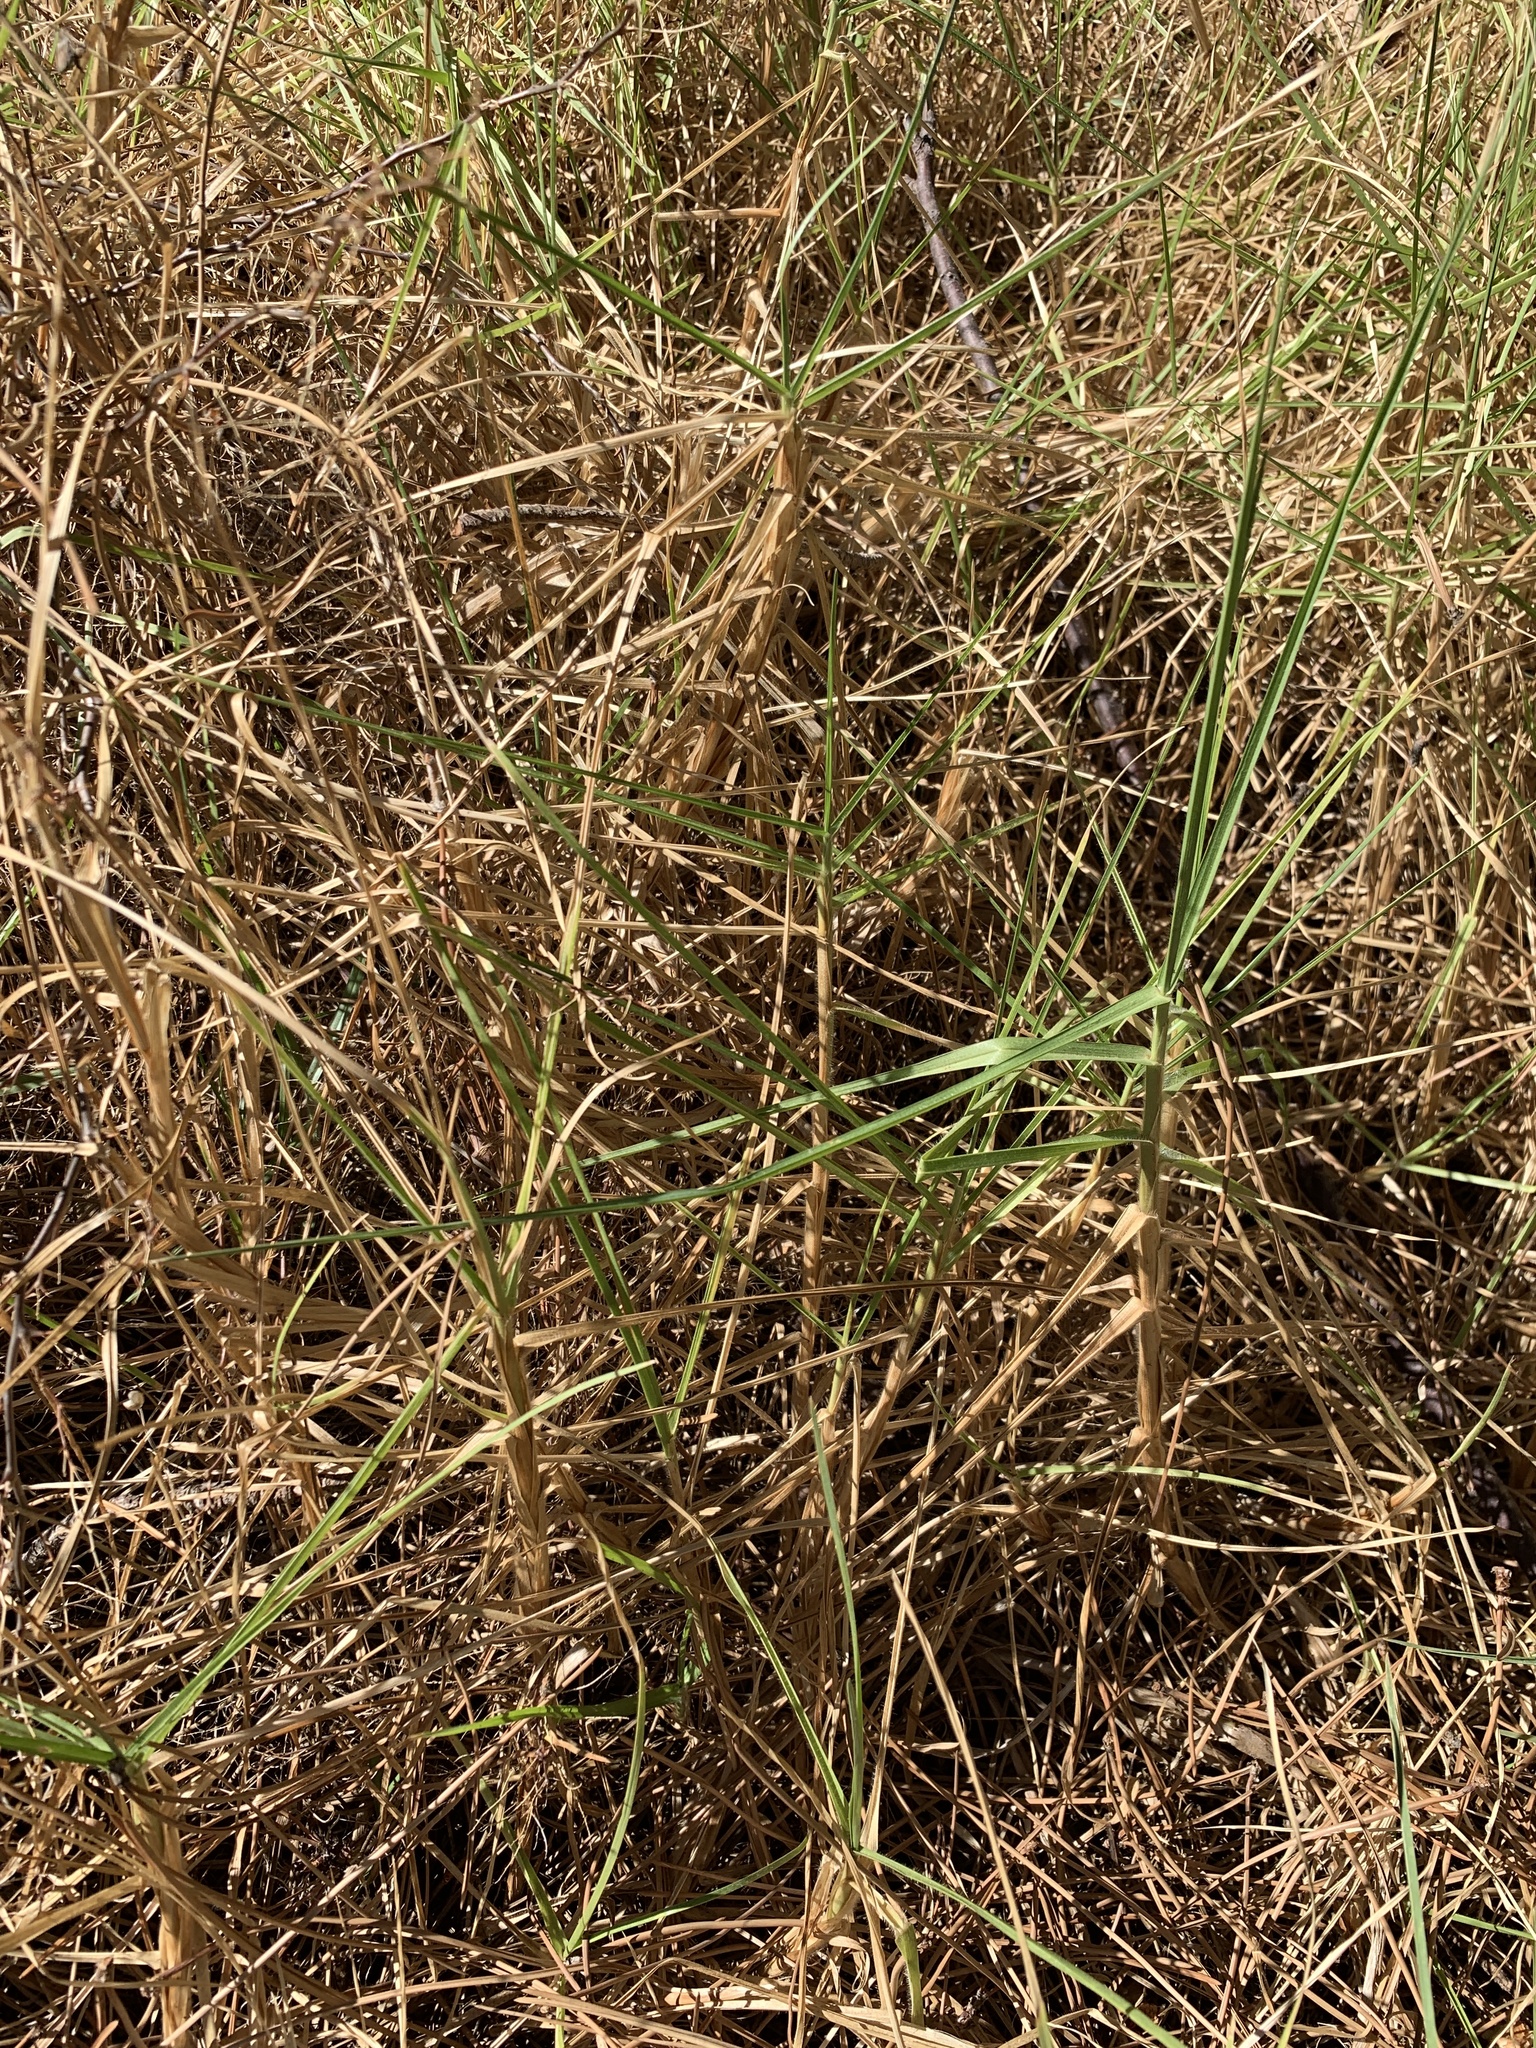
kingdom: Plantae
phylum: Tracheophyta
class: Liliopsida
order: Poales
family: Poaceae
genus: Cenchrus
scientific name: Cenchrus clandestinus
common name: Kikuyugrass
